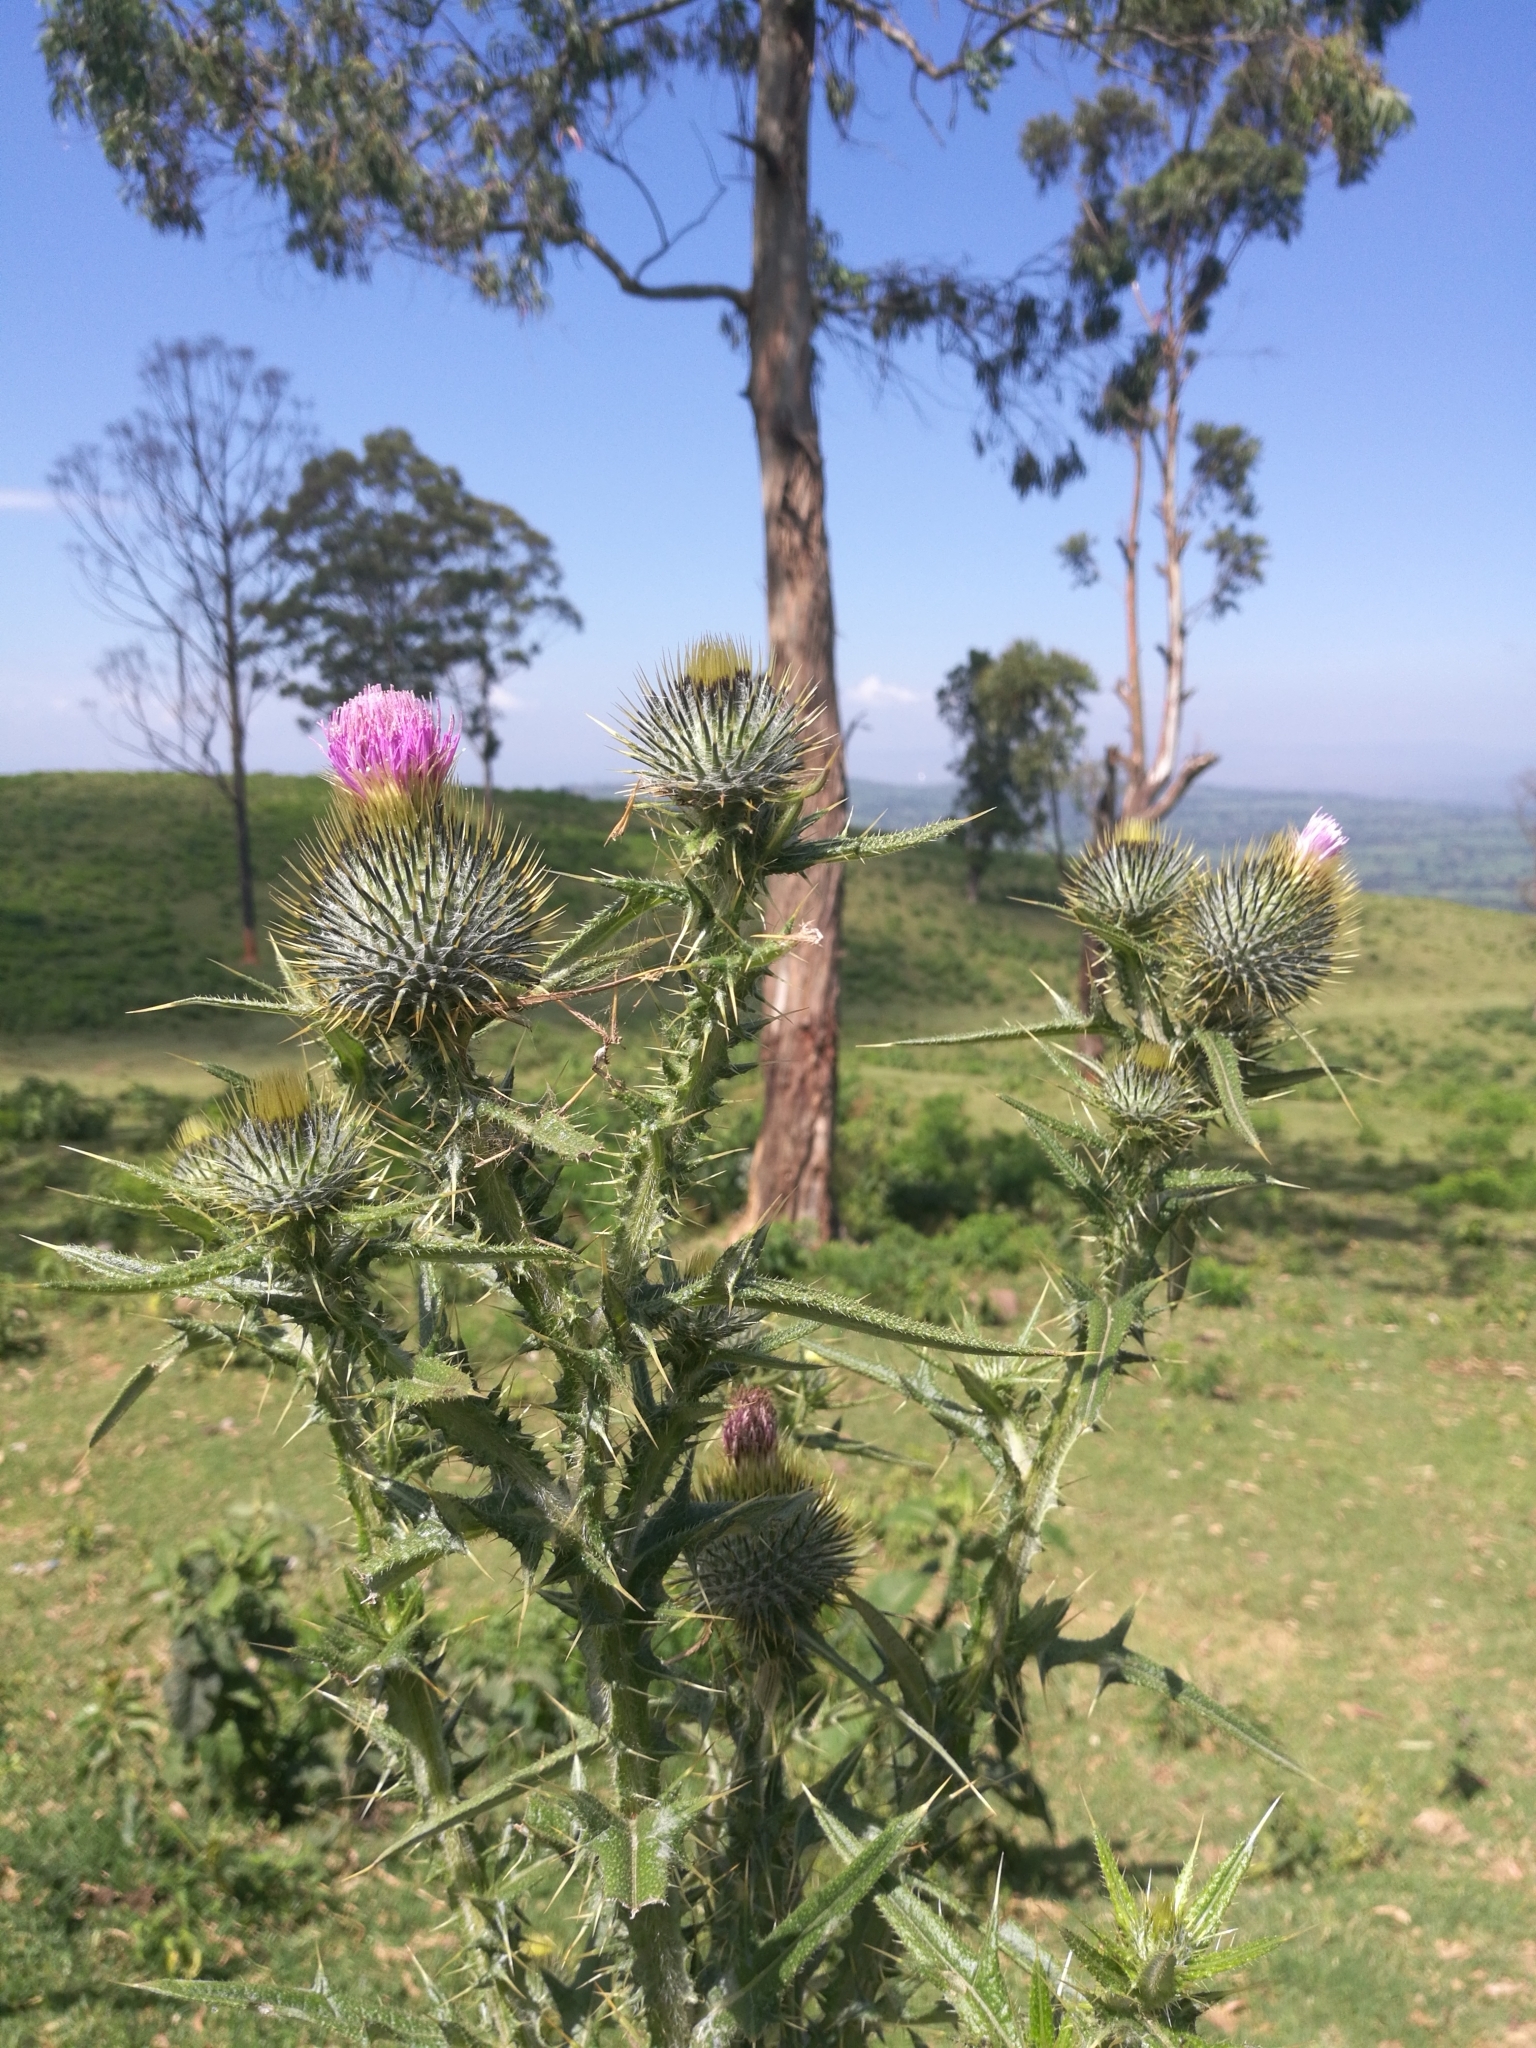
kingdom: Plantae
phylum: Tracheophyta
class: Magnoliopsida
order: Asterales
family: Asteraceae
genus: Cirsium
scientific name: Cirsium vulgare
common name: Bull thistle
